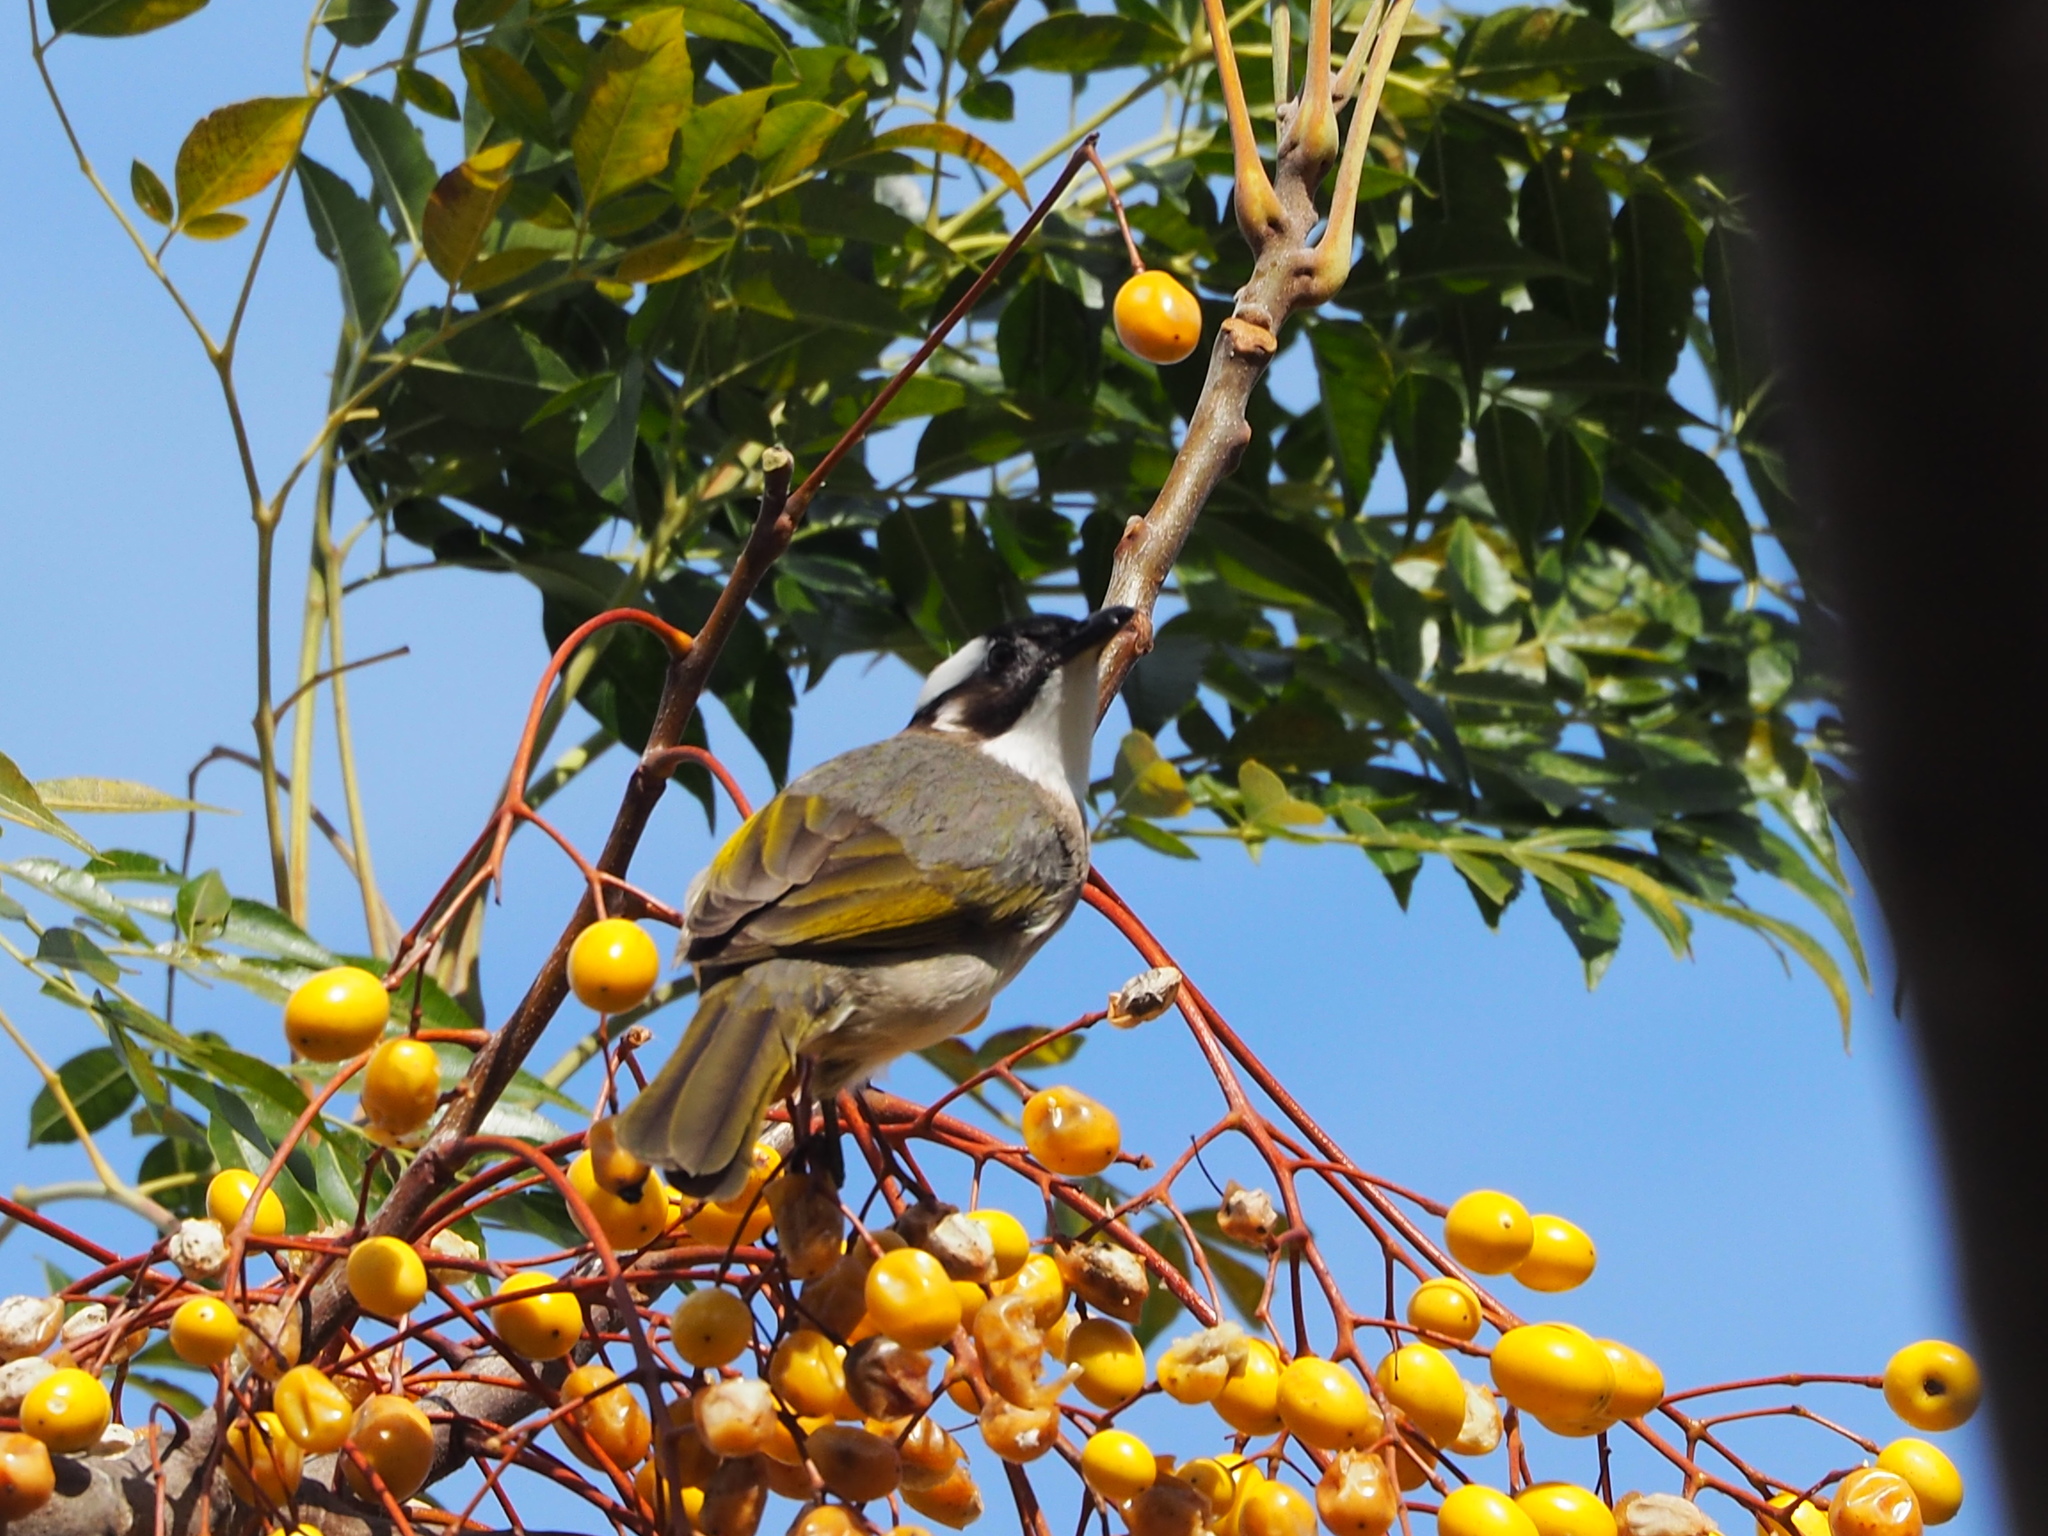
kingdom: Animalia
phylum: Chordata
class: Aves
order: Passeriformes
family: Pycnonotidae
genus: Pycnonotus
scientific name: Pycnonotus sinensis
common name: Light-vented bulbul
